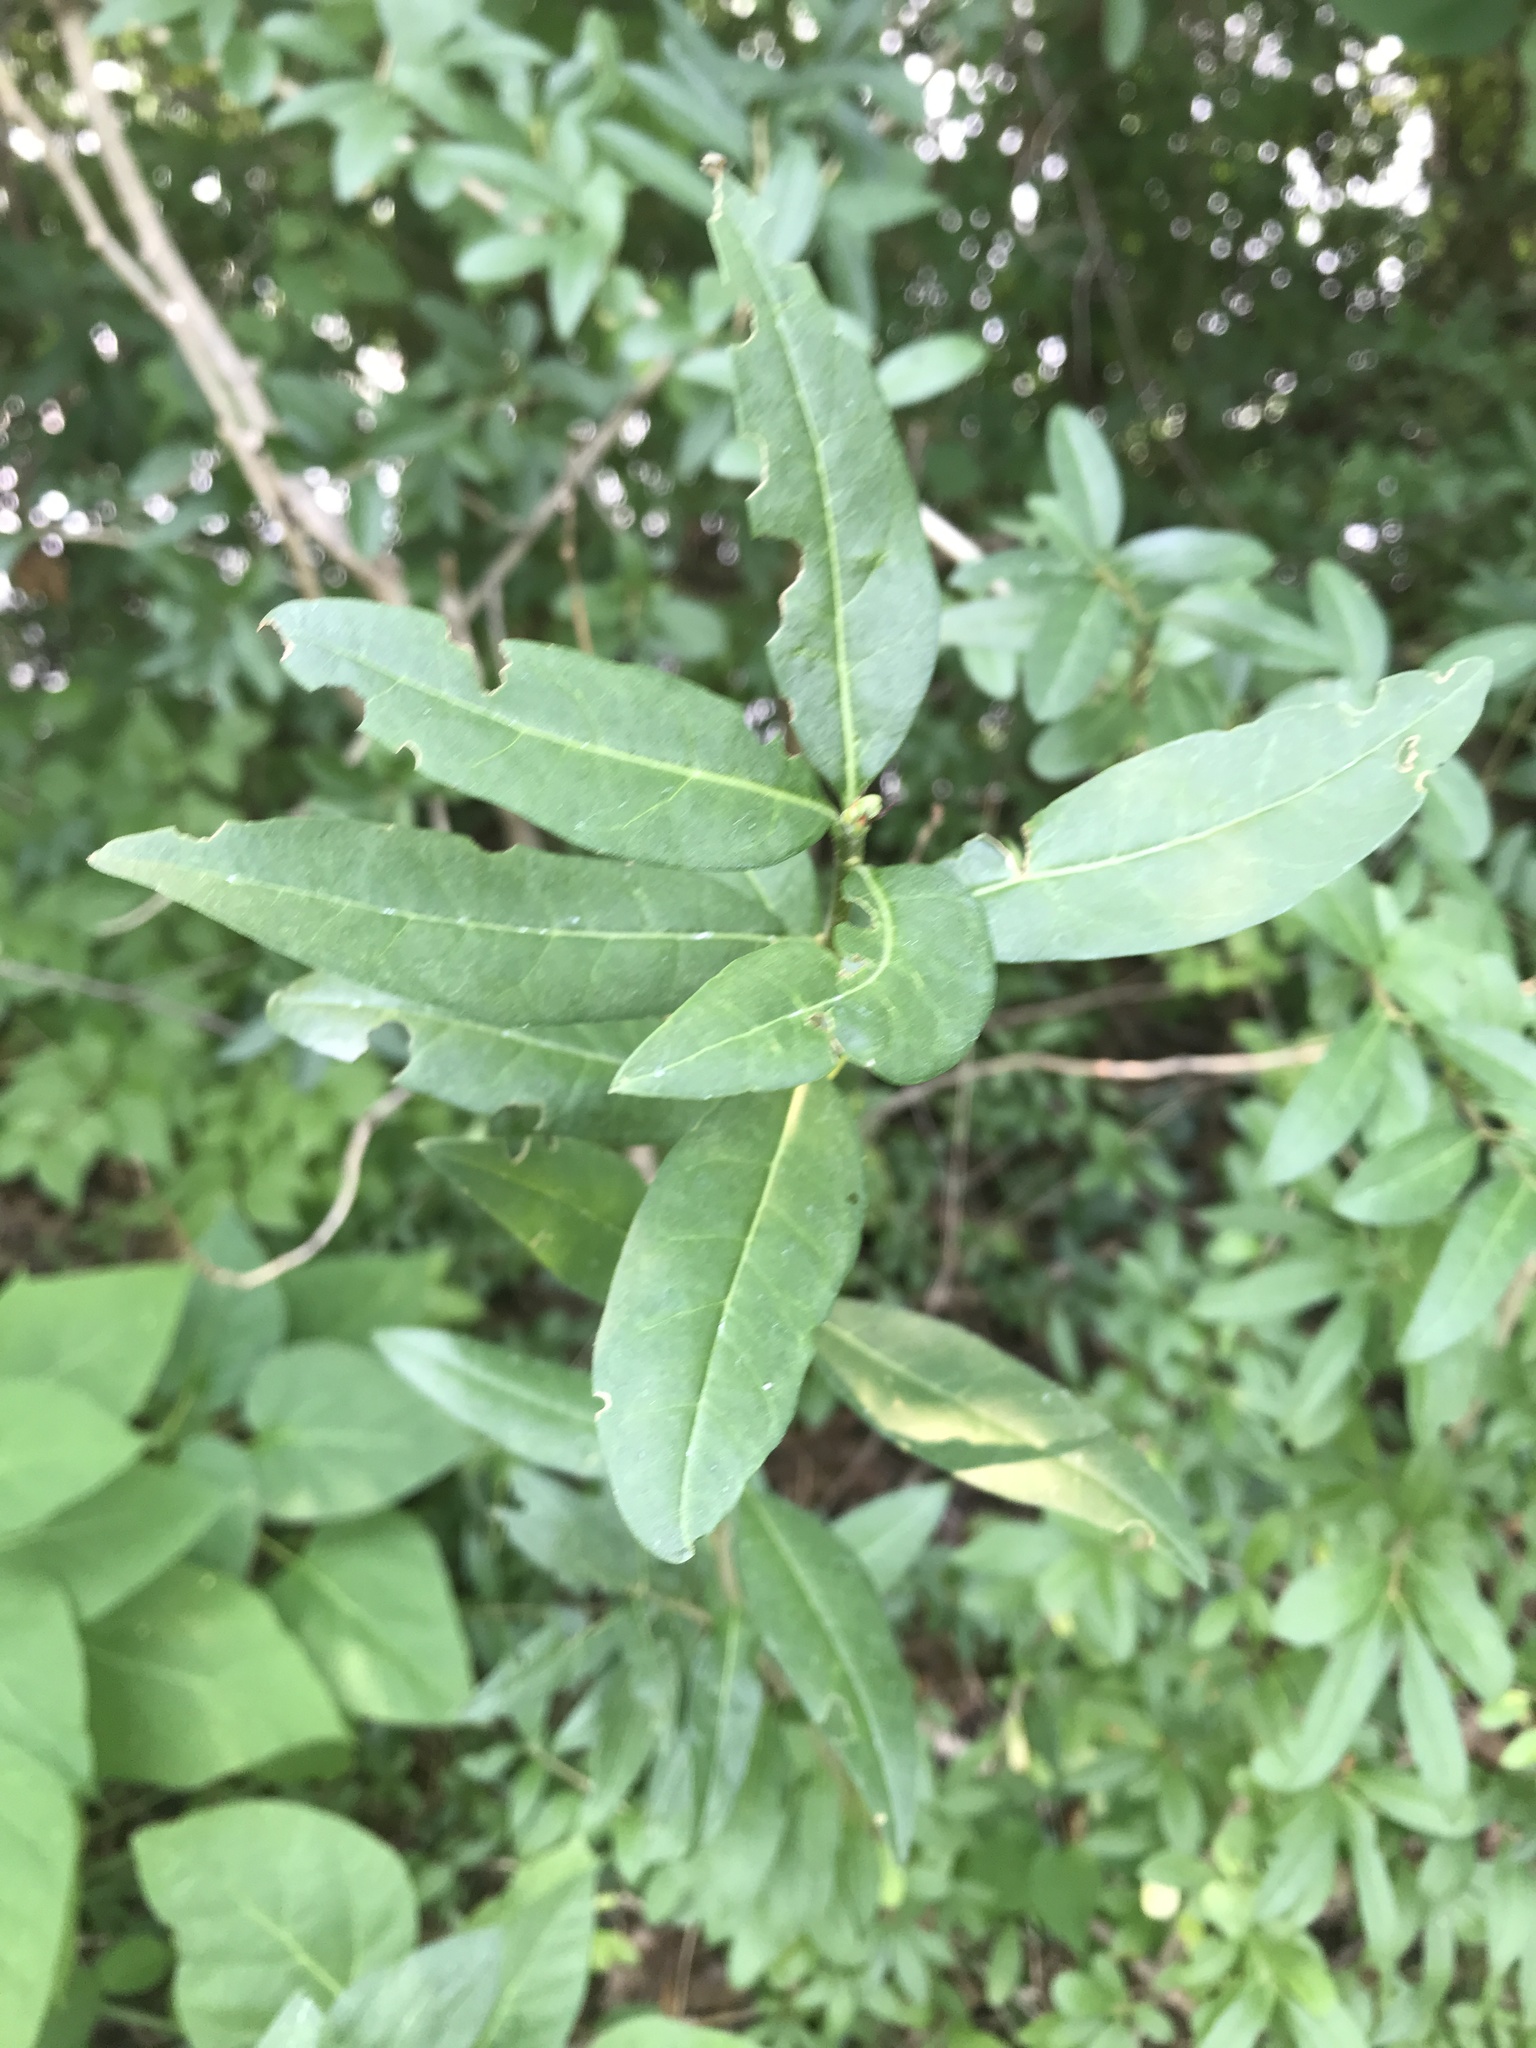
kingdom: Plantae
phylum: Tracheophyta
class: Magnoliopsida
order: Lamiales
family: Oleaceae
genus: Ligustrum
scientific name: Ligustrum vulgare
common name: Wild privet
